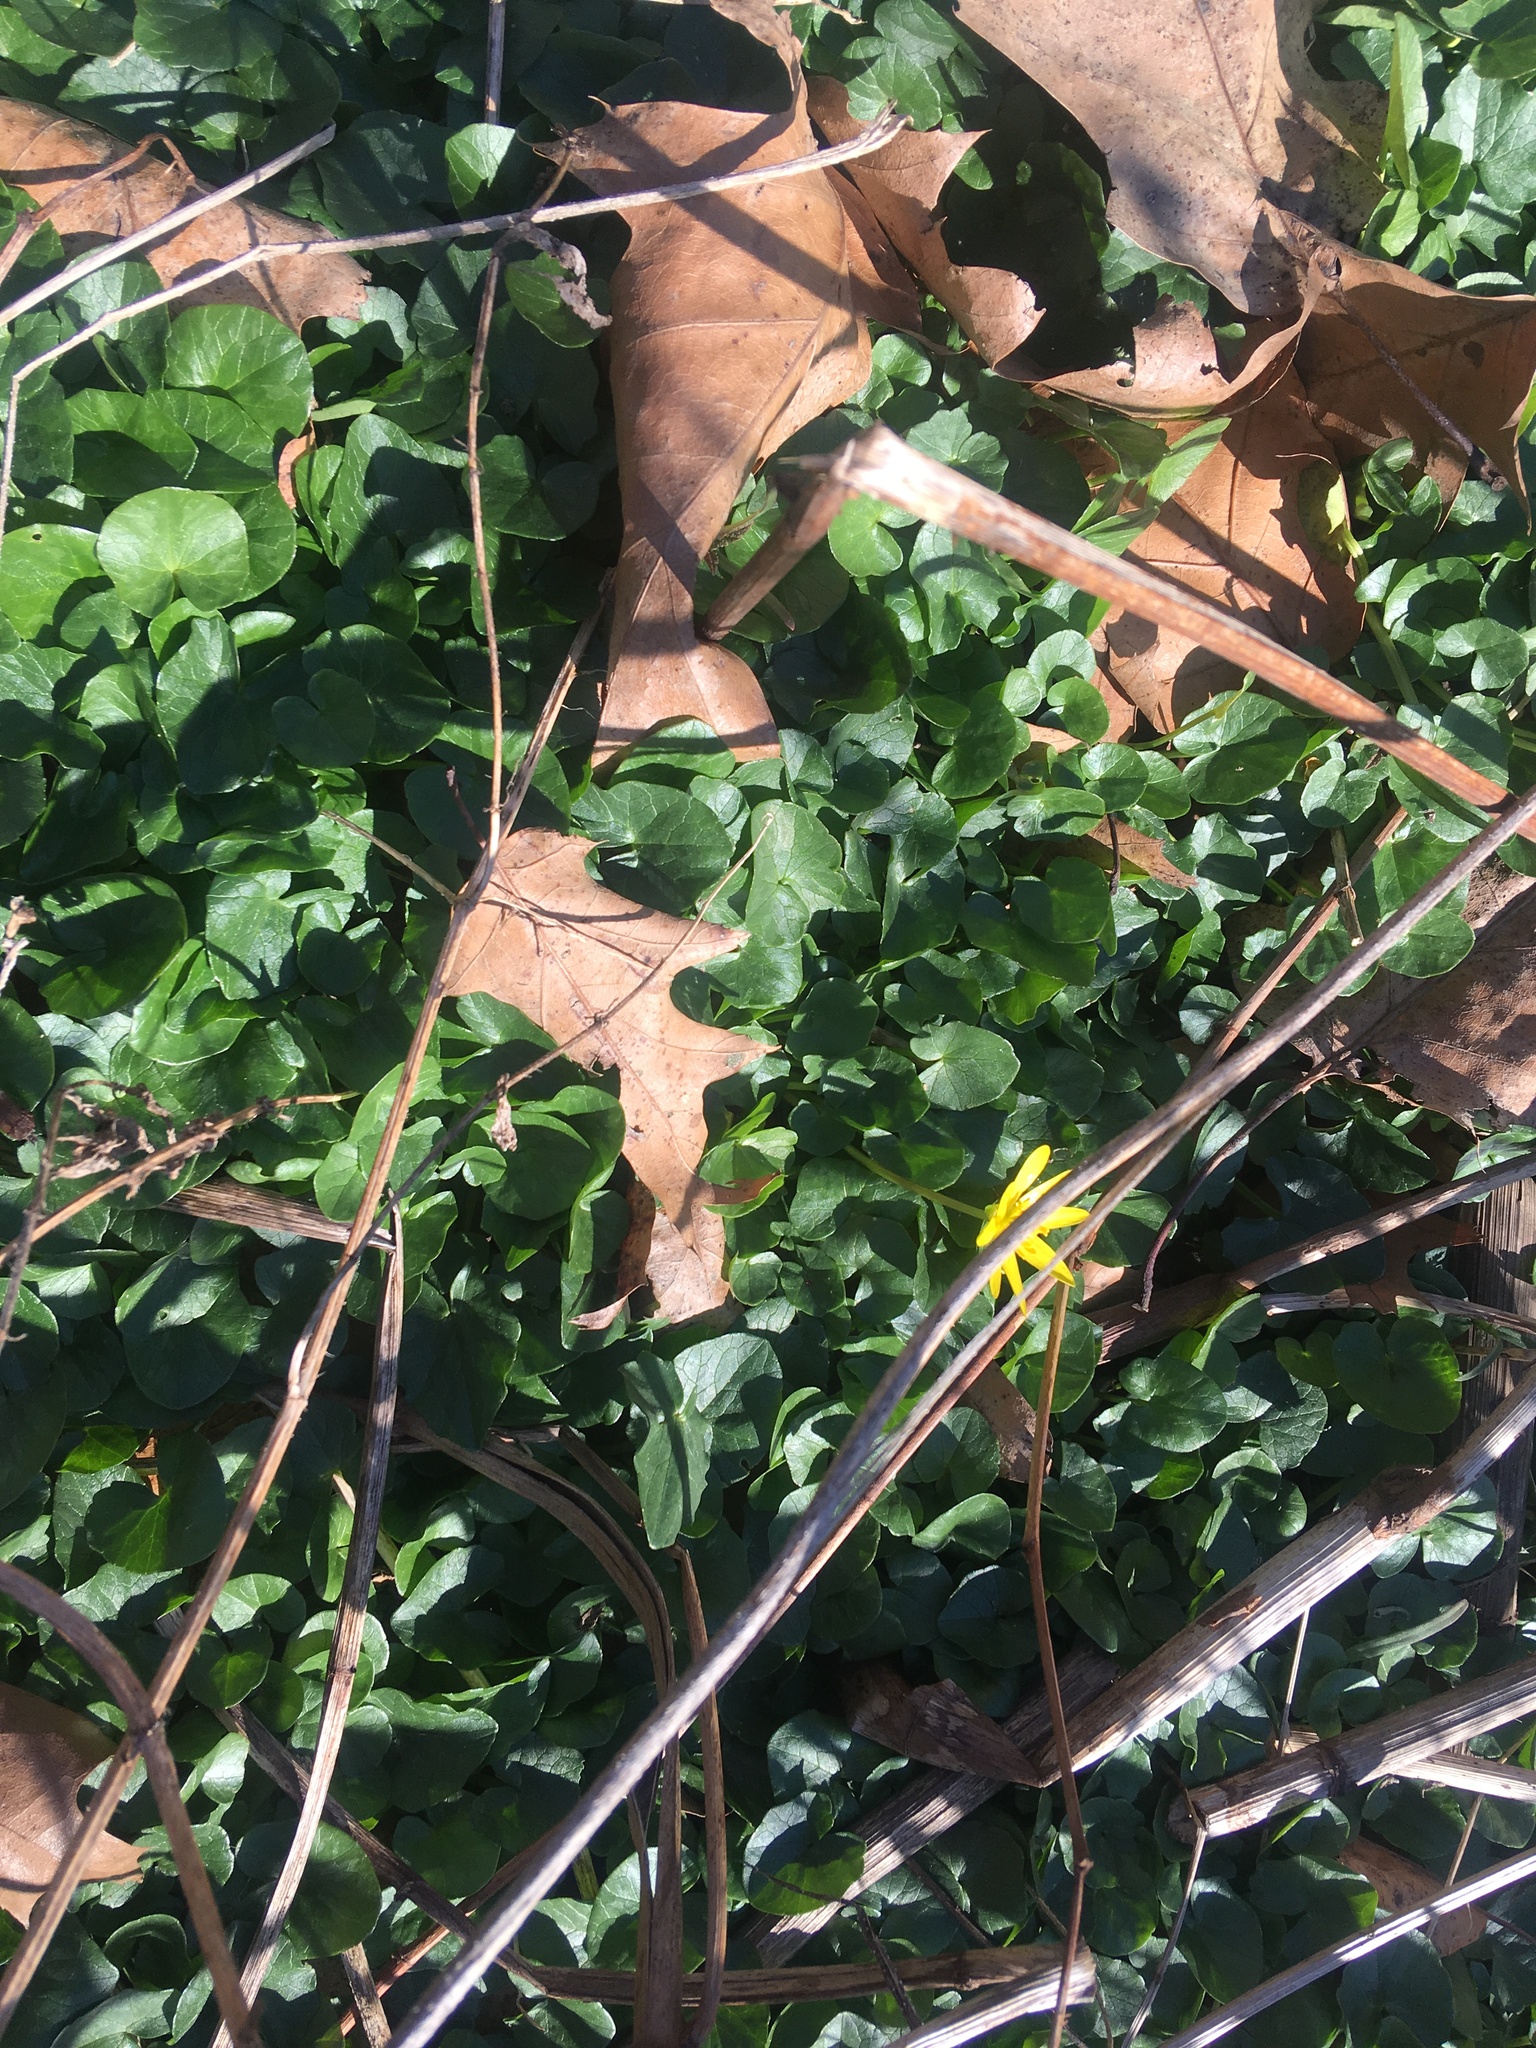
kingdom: Plantae
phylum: Tracheophyta
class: Magnoliopsida
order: Ranunculales
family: Ranunculaceae
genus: Ficaria
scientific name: Ficaria verna
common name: Lesser celandine
